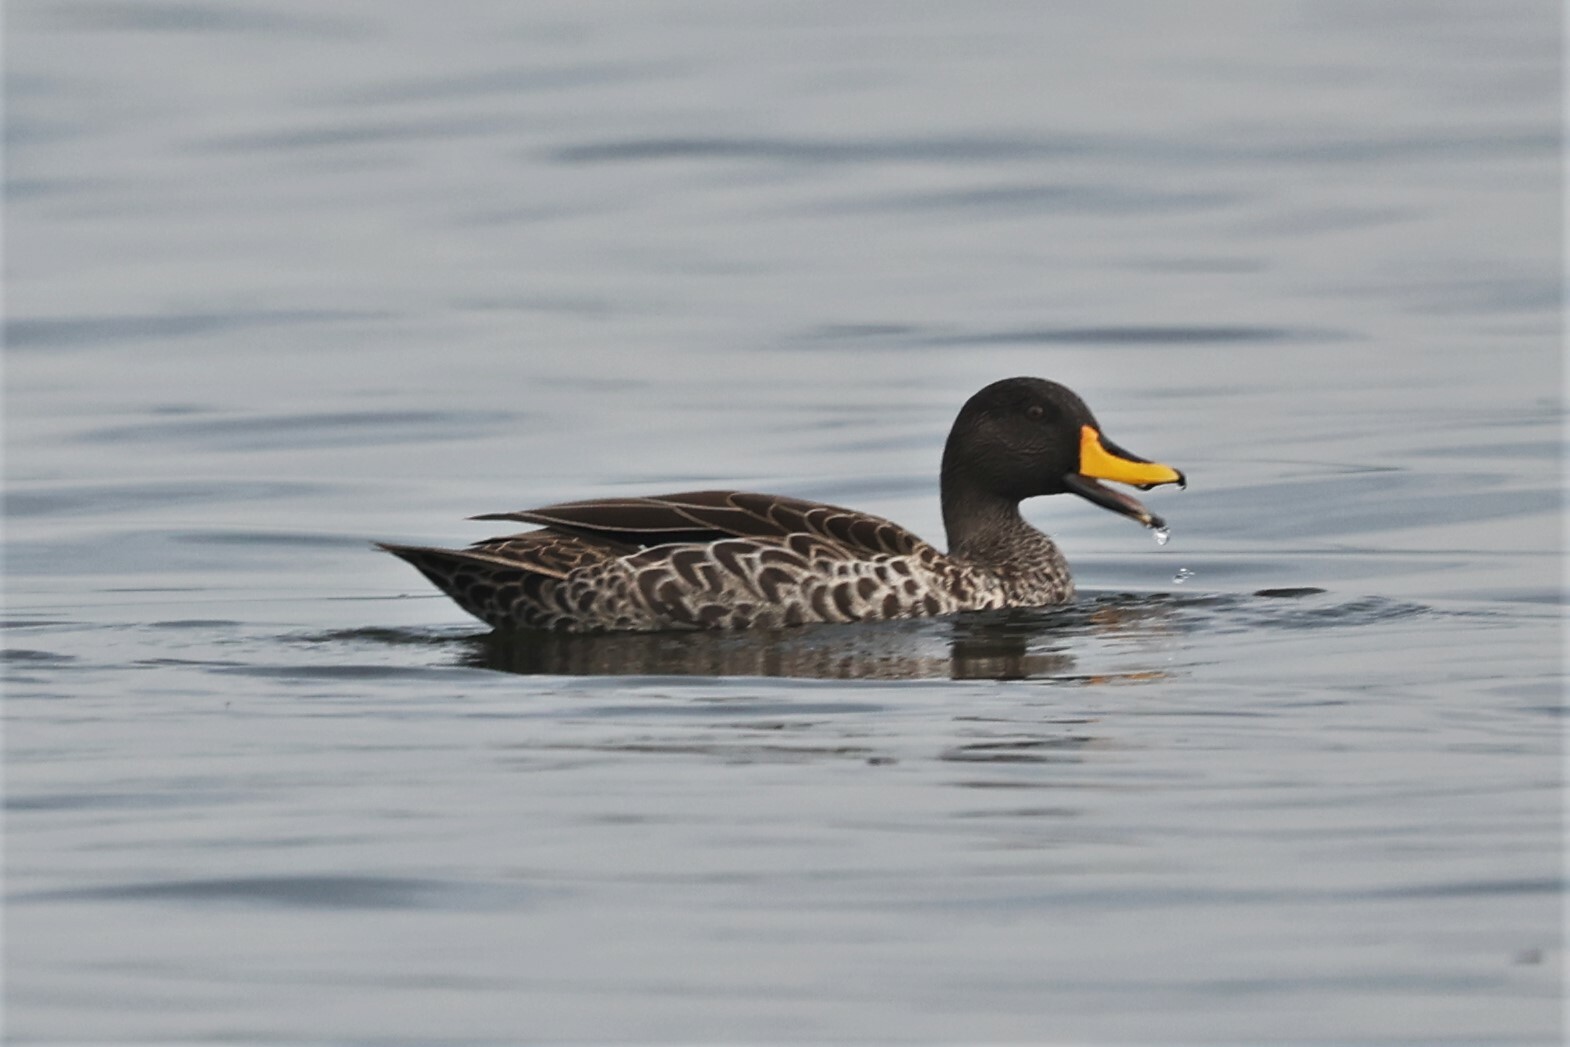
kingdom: Animalia
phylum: Chordata
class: Aves
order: Anseriformes
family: Anatidae
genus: Anas
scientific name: Anas undulata
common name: Yellow-billed duck
